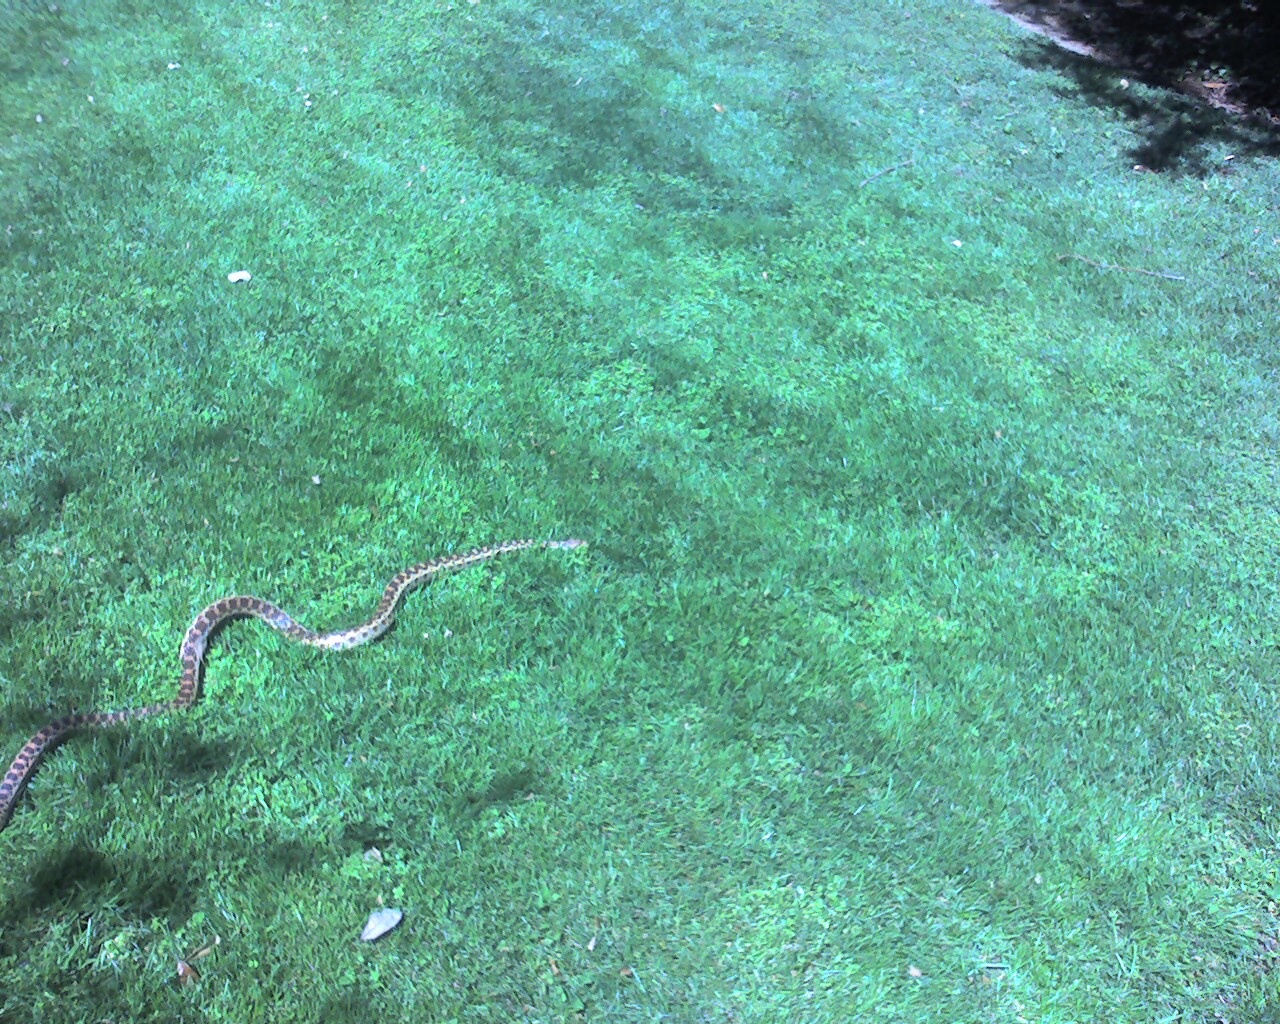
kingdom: Animalia
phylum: Chordata
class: Squamata
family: Colubridae
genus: Pituophis
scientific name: Pituophis catenifer
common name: Gopher snake
